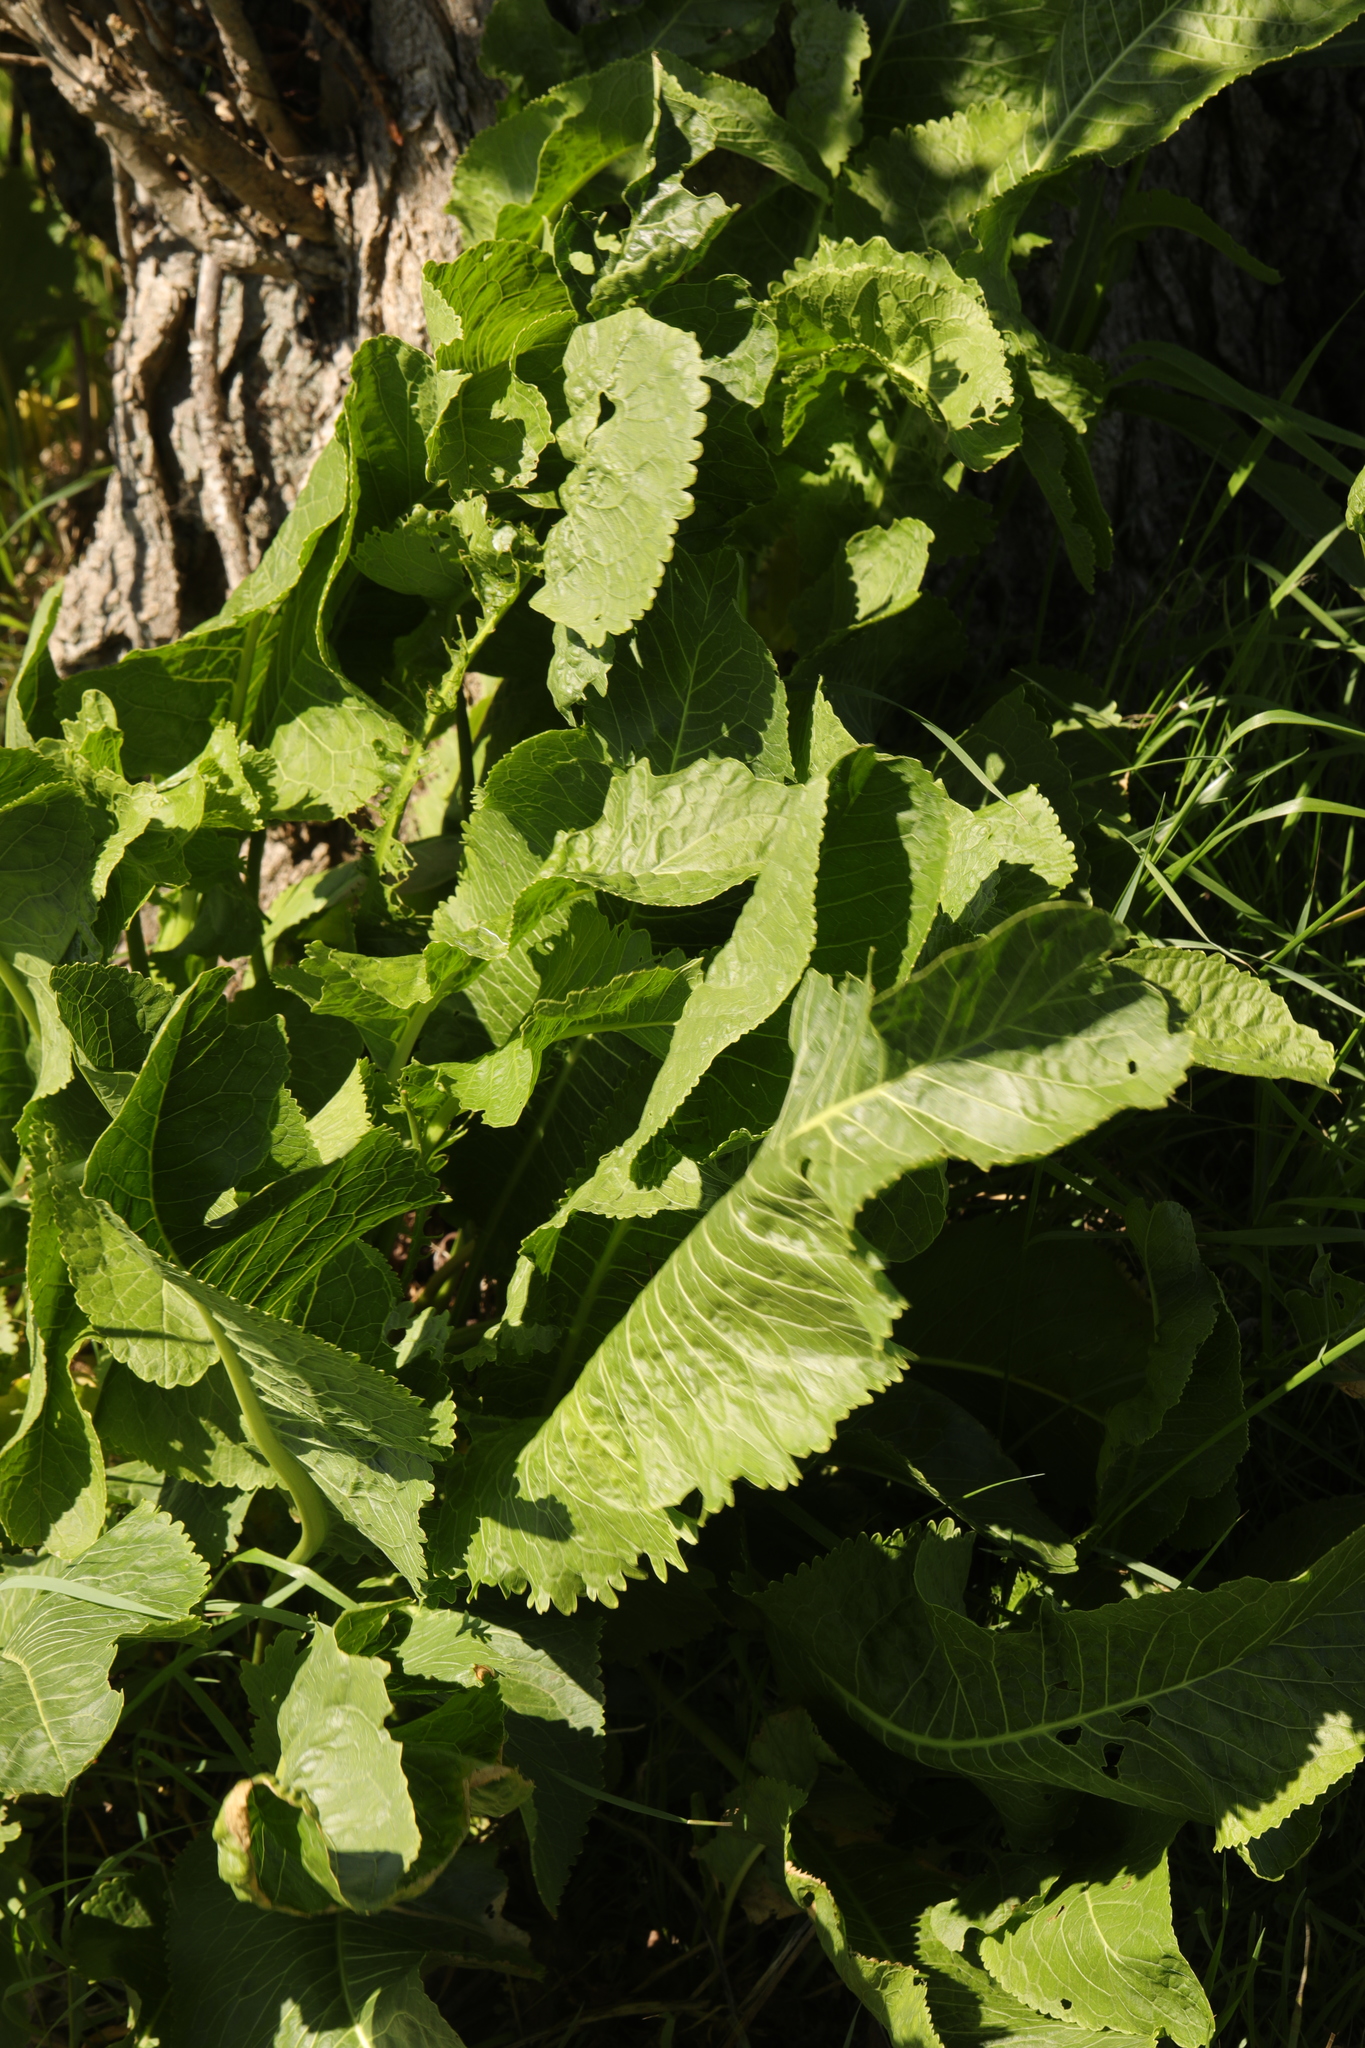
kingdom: Plantae
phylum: Tracheophyta
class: Magnoliopsida
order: Brassicales
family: Brassicaceae
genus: Armoracia
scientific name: Armoracia rusticana
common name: Horseradish
